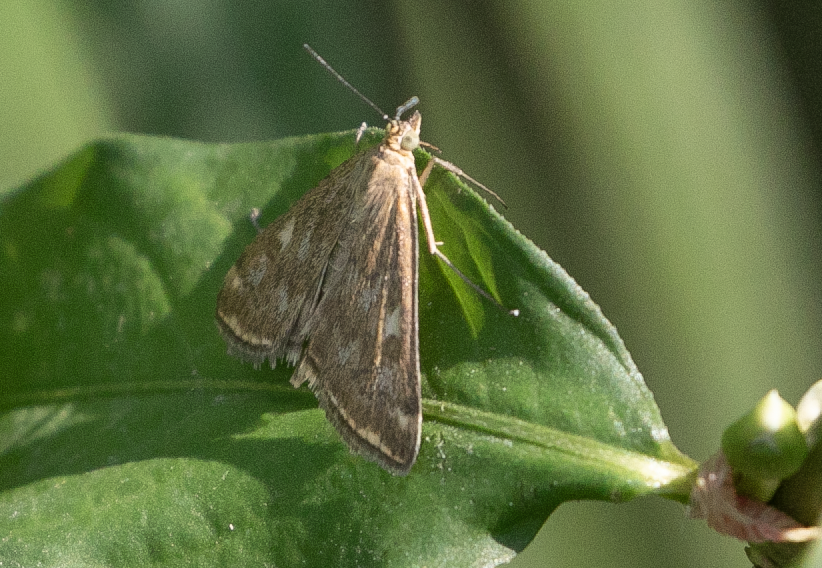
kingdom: Animalia
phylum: Arthropoda
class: Insecta
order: Lepidoptera
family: Crambidae
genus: Loxostege
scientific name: Loxostege sticticalis
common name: Crambid moth
